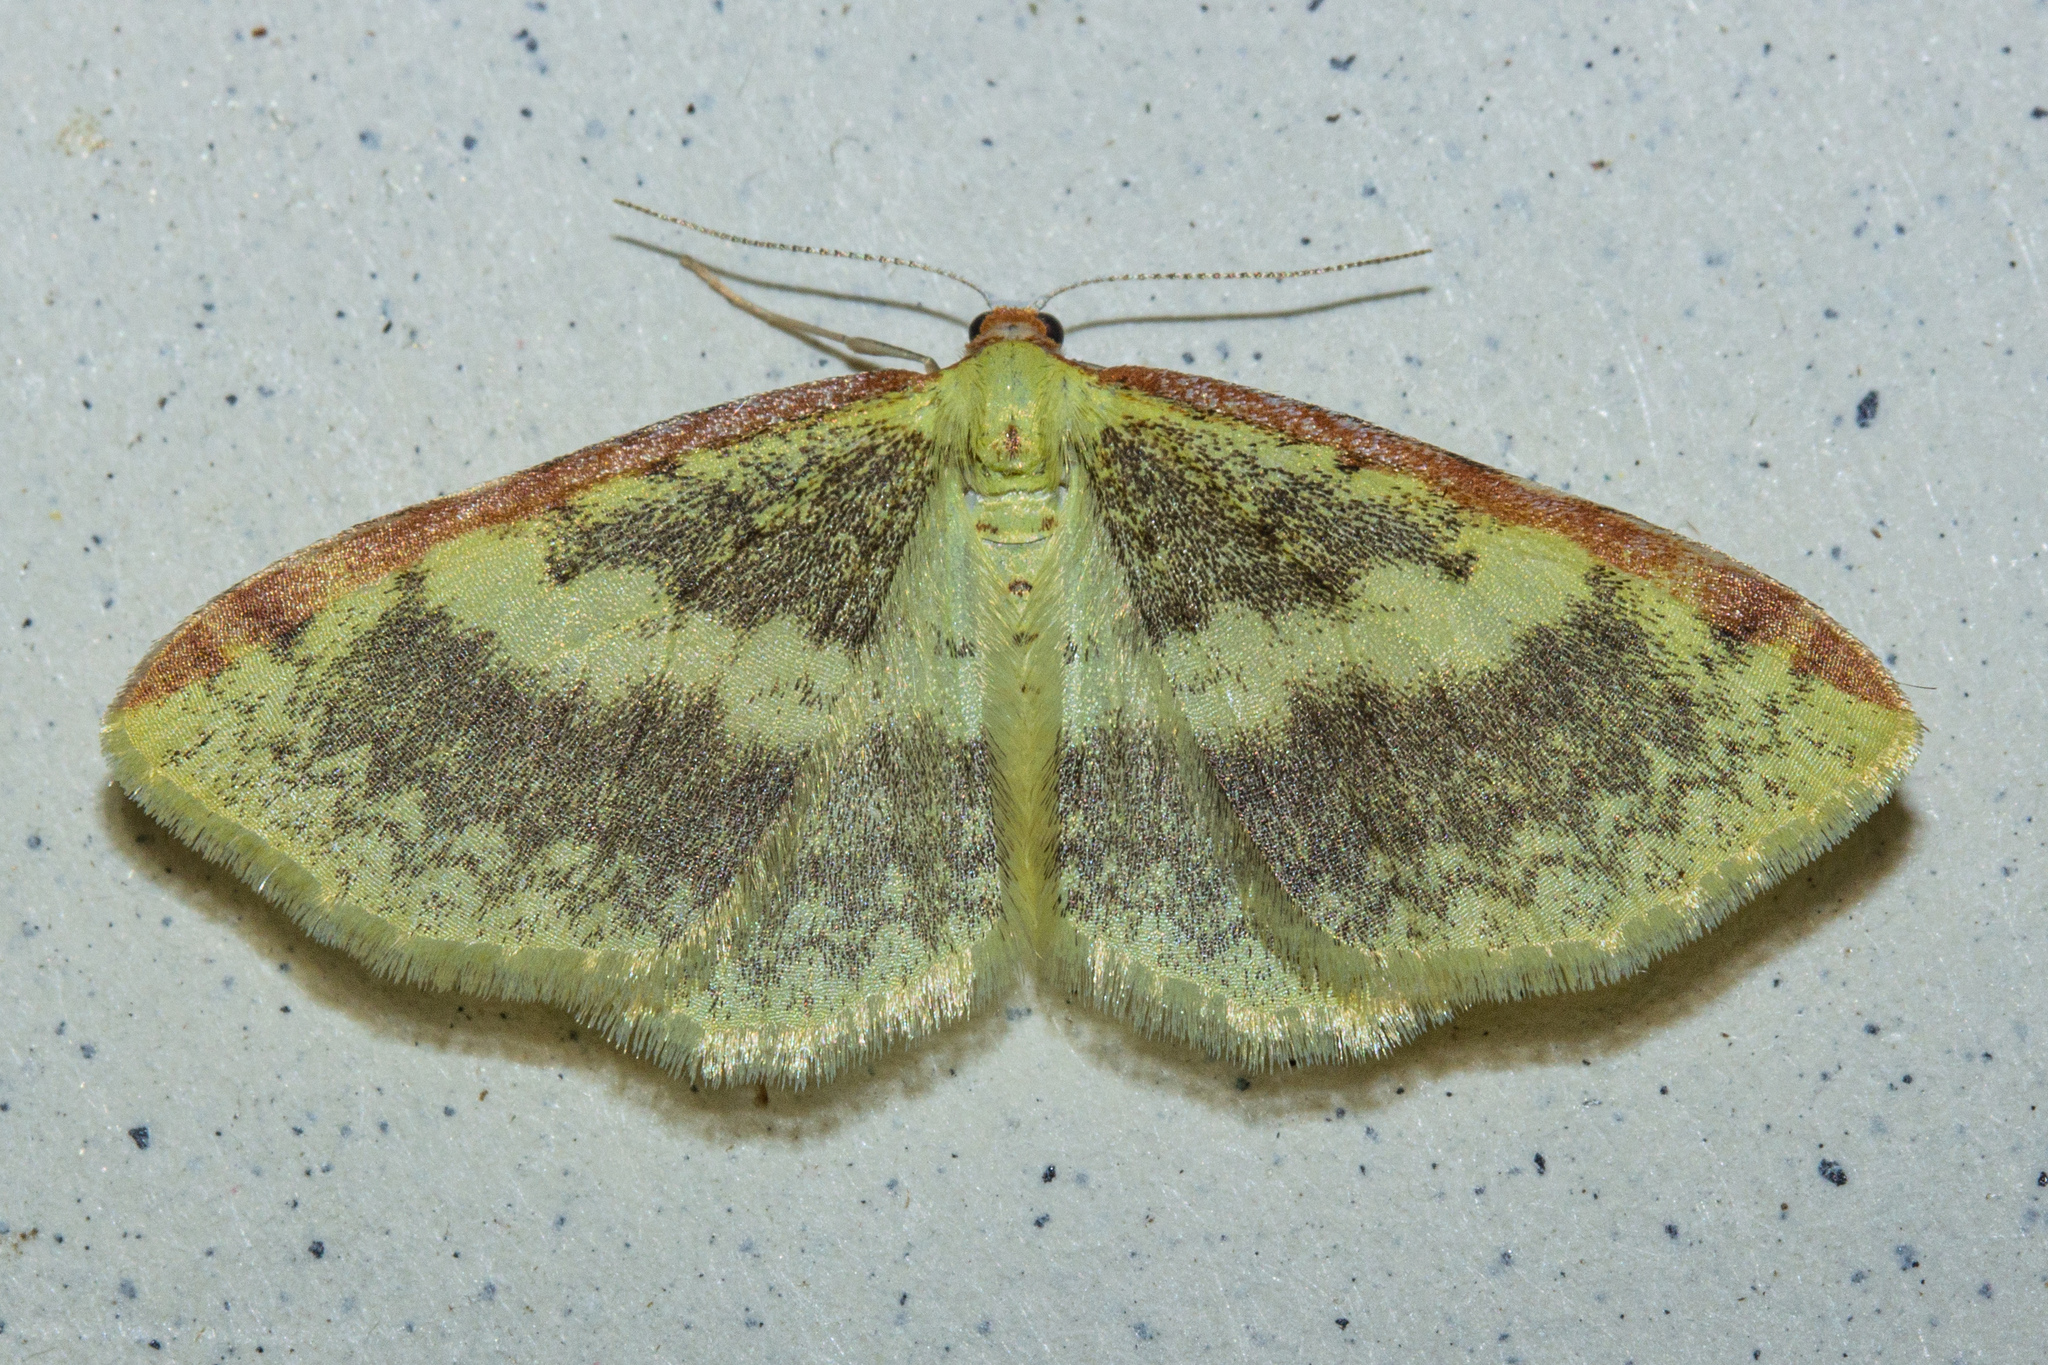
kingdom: Animalia
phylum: Arthropoda
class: Insecta
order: Lepidoptera
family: Geometridae
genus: Epiphryne
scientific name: Epiphryne undosata
